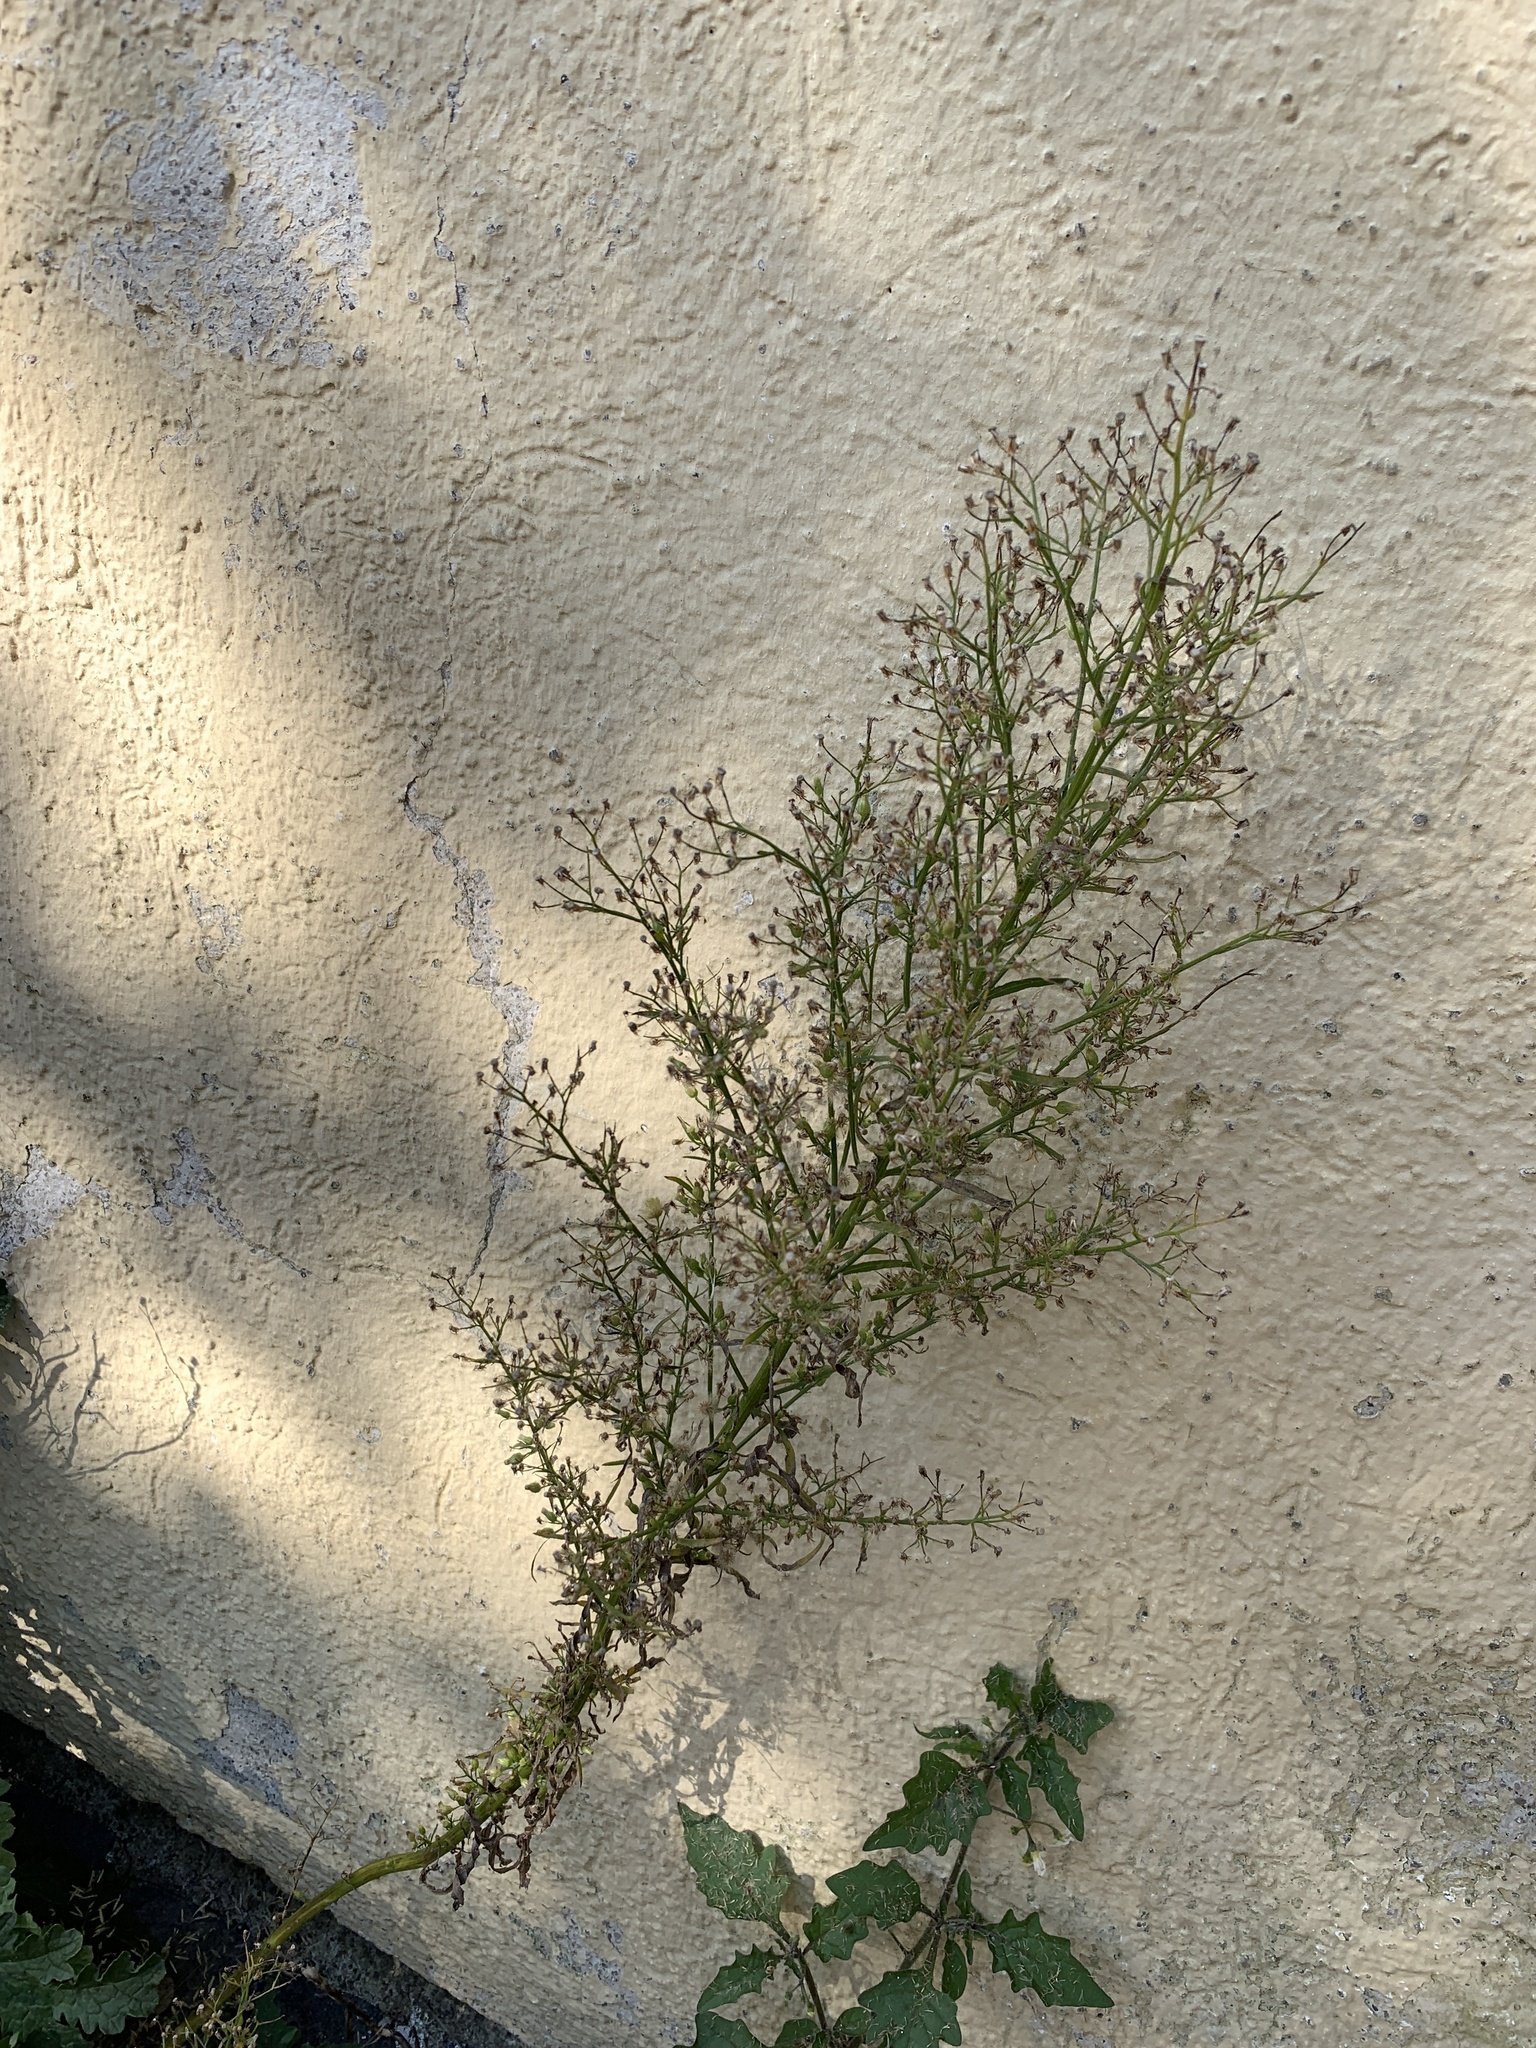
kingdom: Plantae
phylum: Tracheophyta
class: Magnoliopsida
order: Asterales
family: Asteraceae
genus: Erigeron
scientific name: Erigeron canadensis
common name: Canadian fleabane
